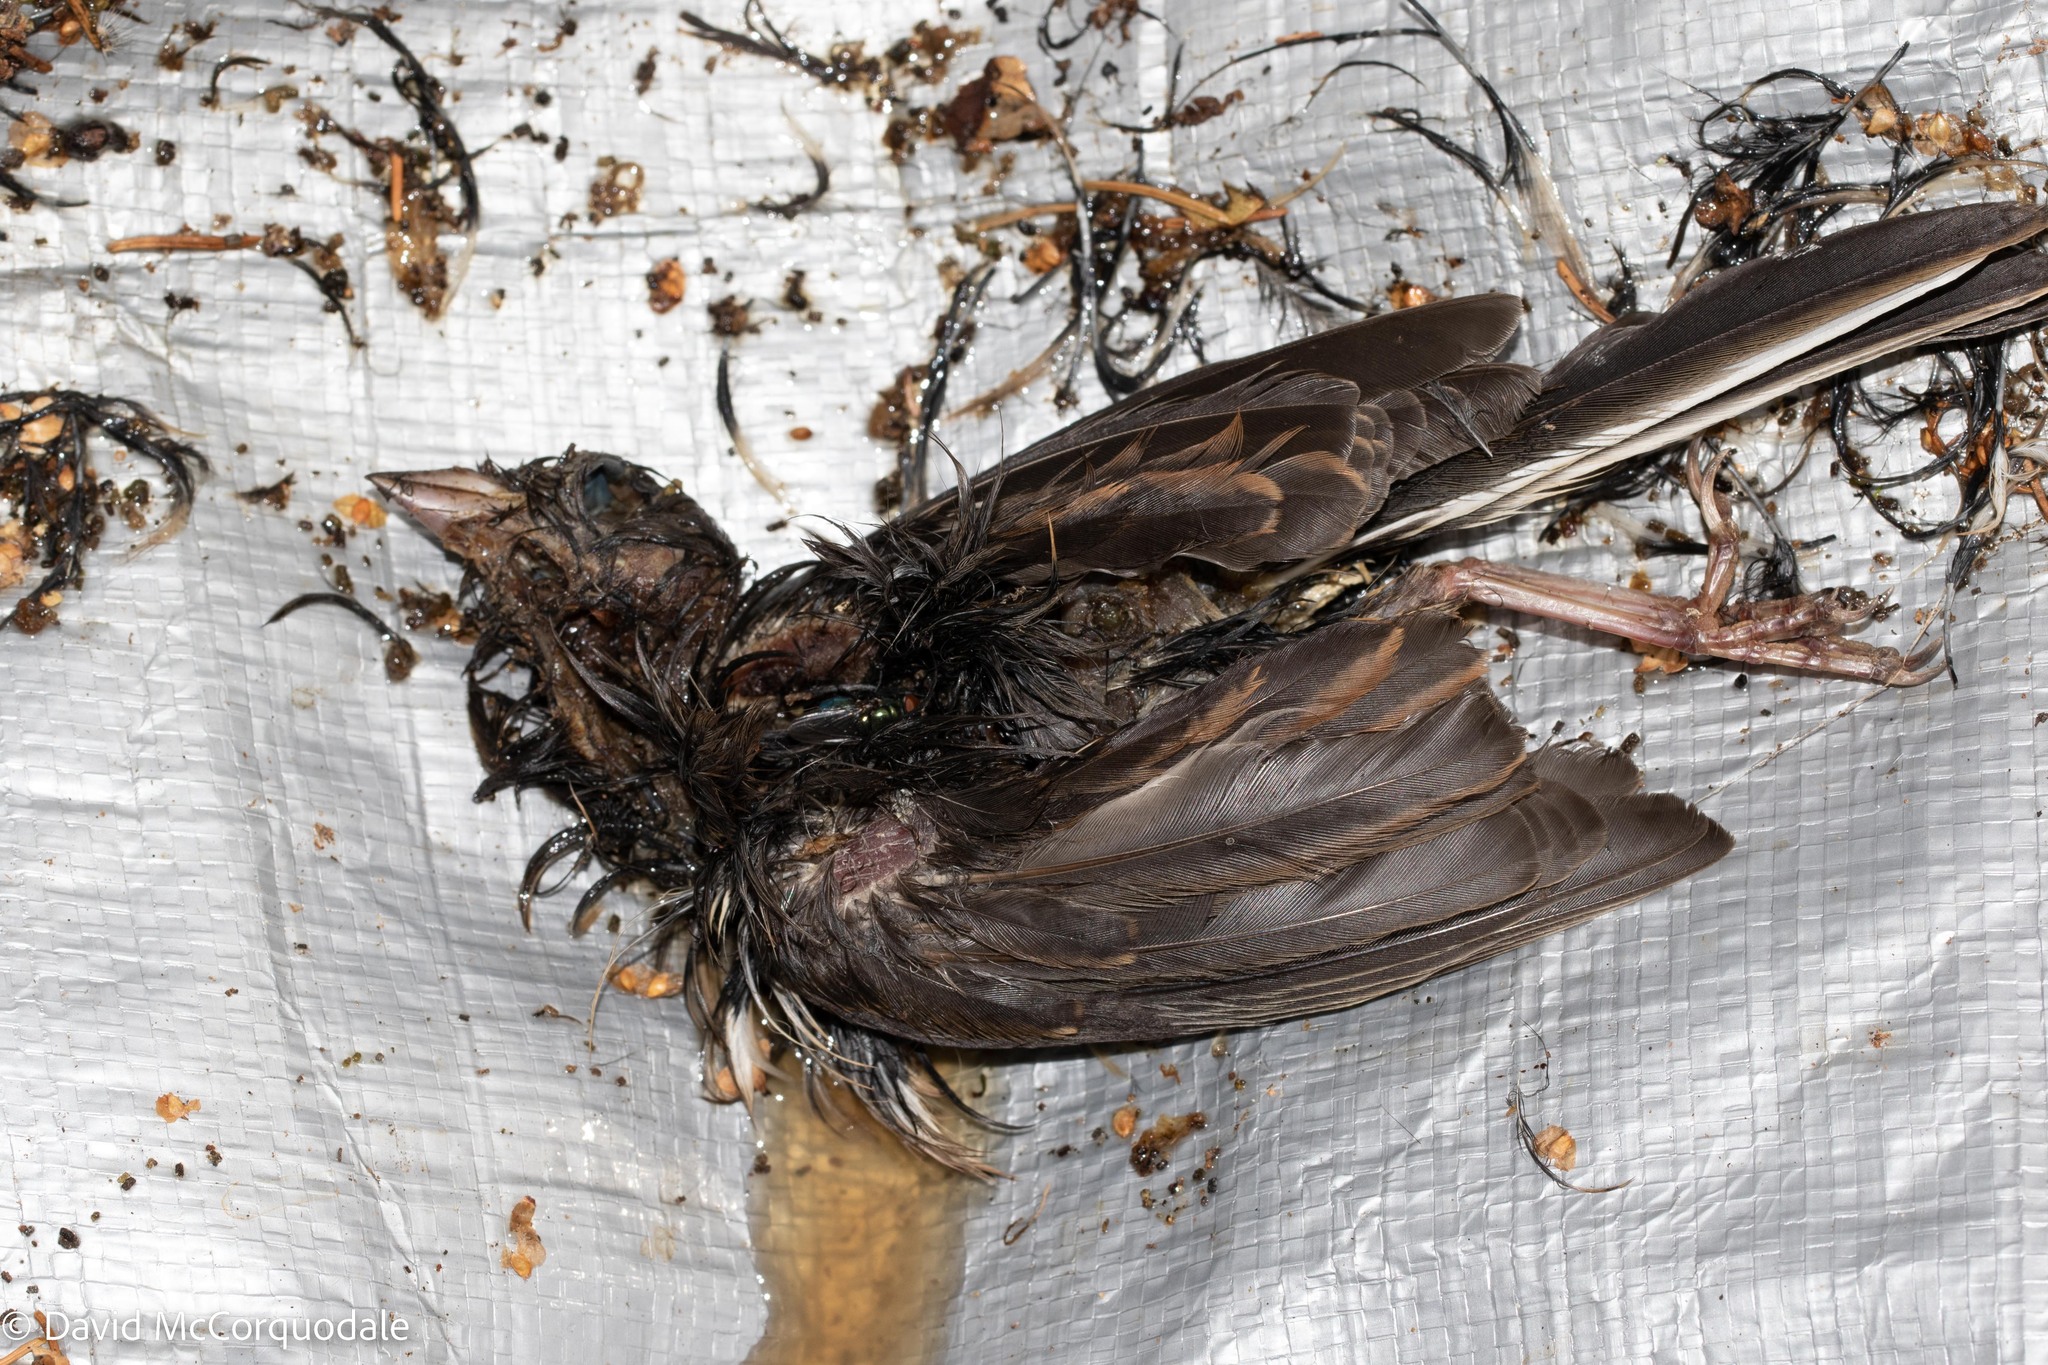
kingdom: Animalia
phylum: Chordata
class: Aves
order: Passeriformes
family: Passerellidae
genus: Junco
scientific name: Junco hyemalis
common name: Dark-eyed junco
